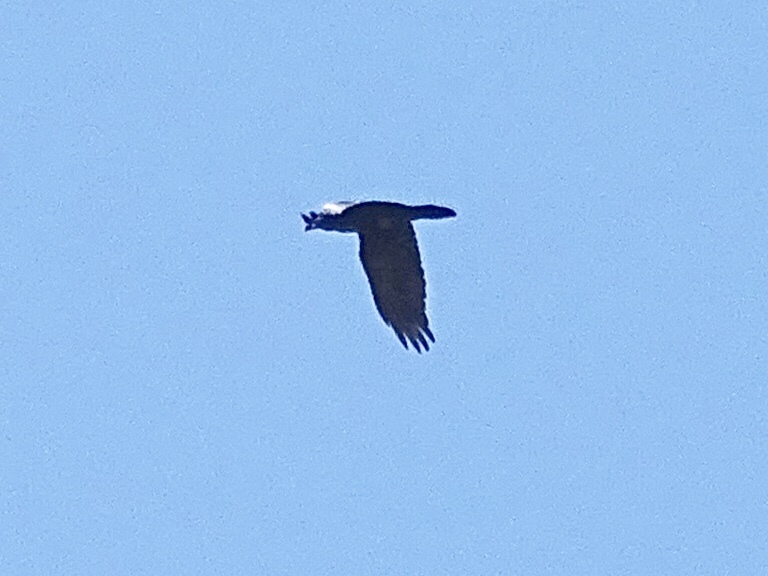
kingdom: Animalia
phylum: Chordata
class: Aves
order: Accipitriformes
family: Accipitridae
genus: Buteo
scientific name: Buteo jamaicensis
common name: Red-tailed hawk
